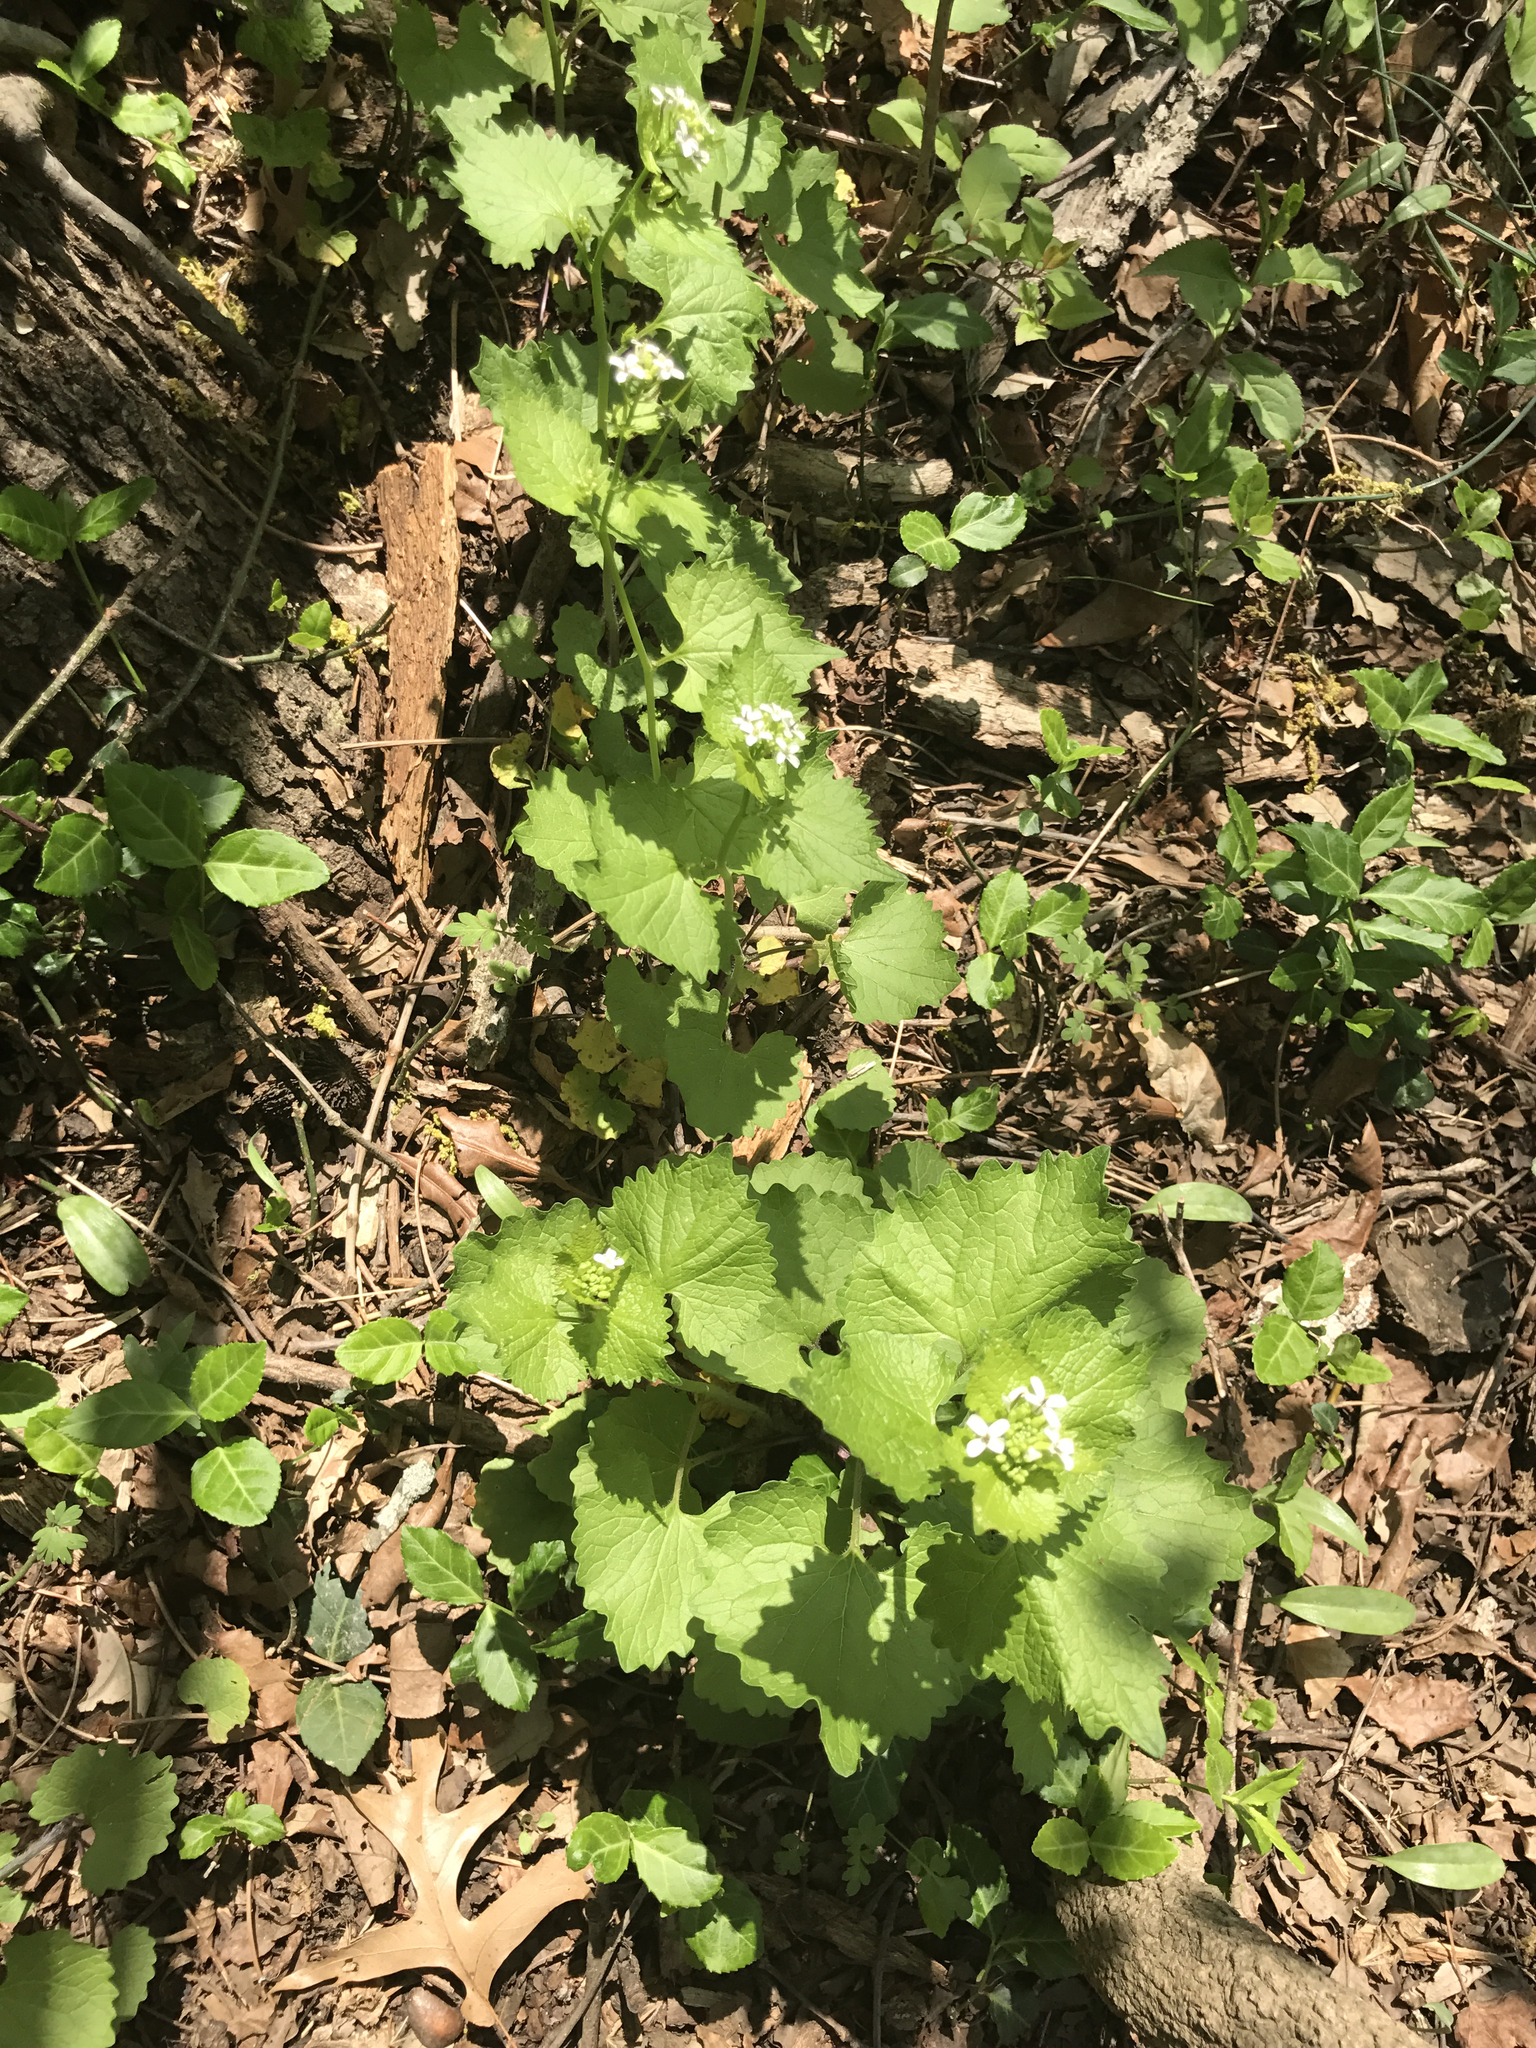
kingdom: Plantae
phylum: Tracheophyta
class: Magnoliopsida
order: Brassicales
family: Brassicaceae
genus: Alliaria
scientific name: Alliaria petiolata
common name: Garlic mustard
